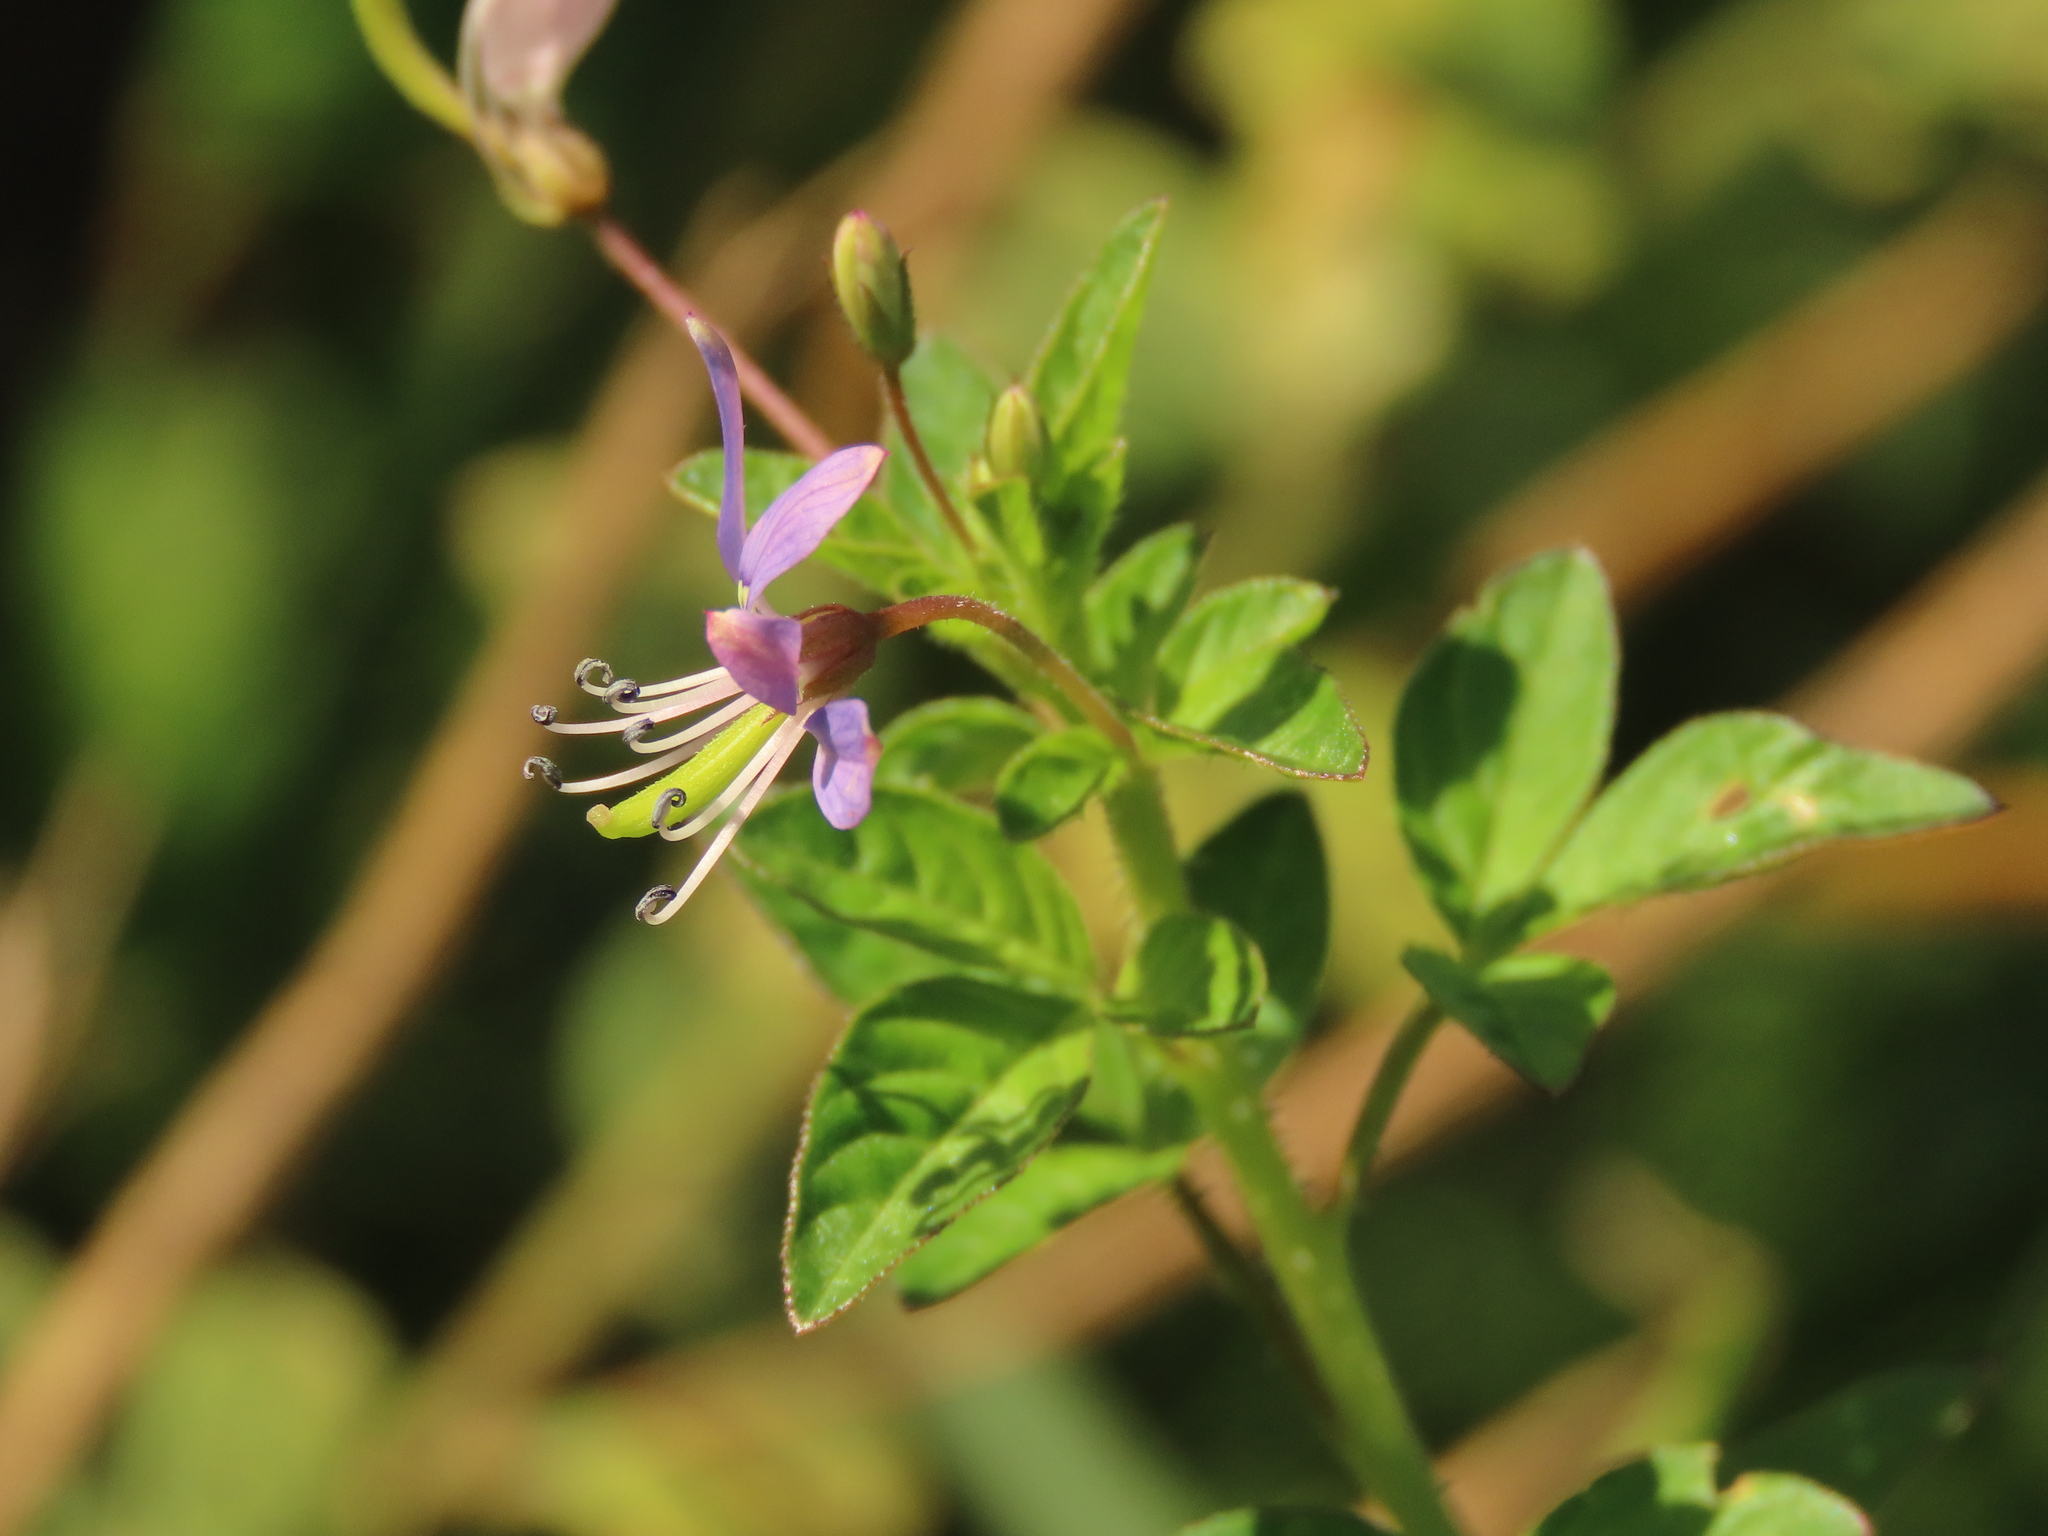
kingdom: Plantae
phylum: Tracheophyta
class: Magnoliopsida
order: Brassicales
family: Cleomaceae
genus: Sieruela
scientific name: Sieruela rutidosperma
